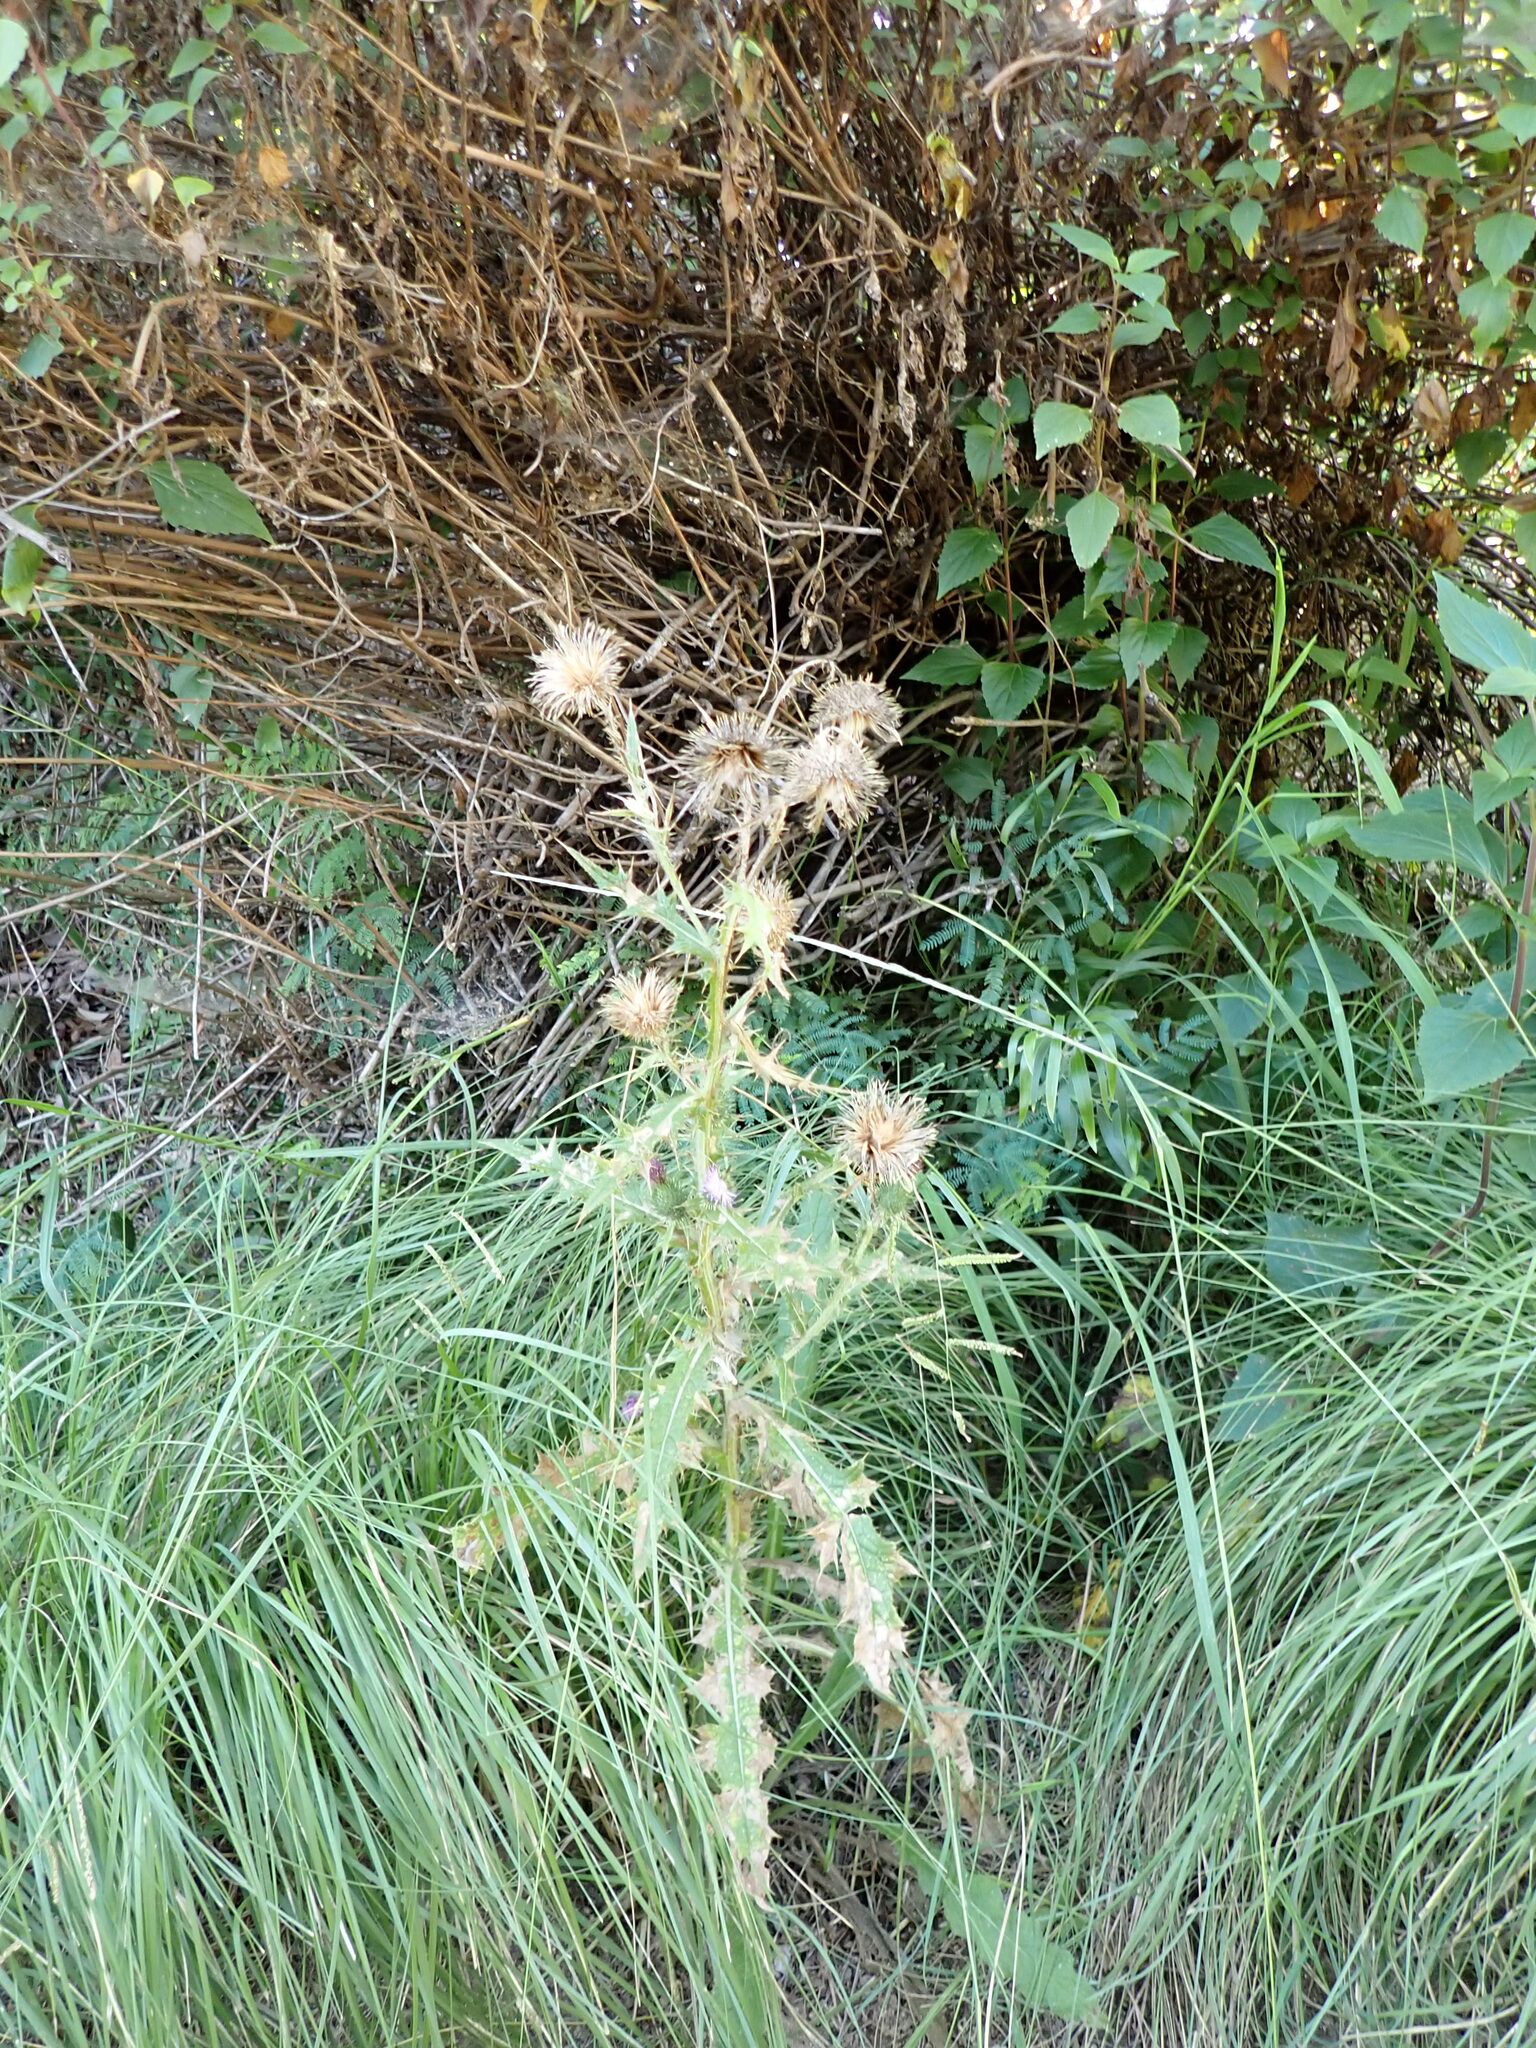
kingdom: Plantae
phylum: Tracheophyta
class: Magnoliopsida
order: Asterales
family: Asteraceae
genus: Cirsium
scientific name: Cirsium vulgare
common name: Bull thistle
